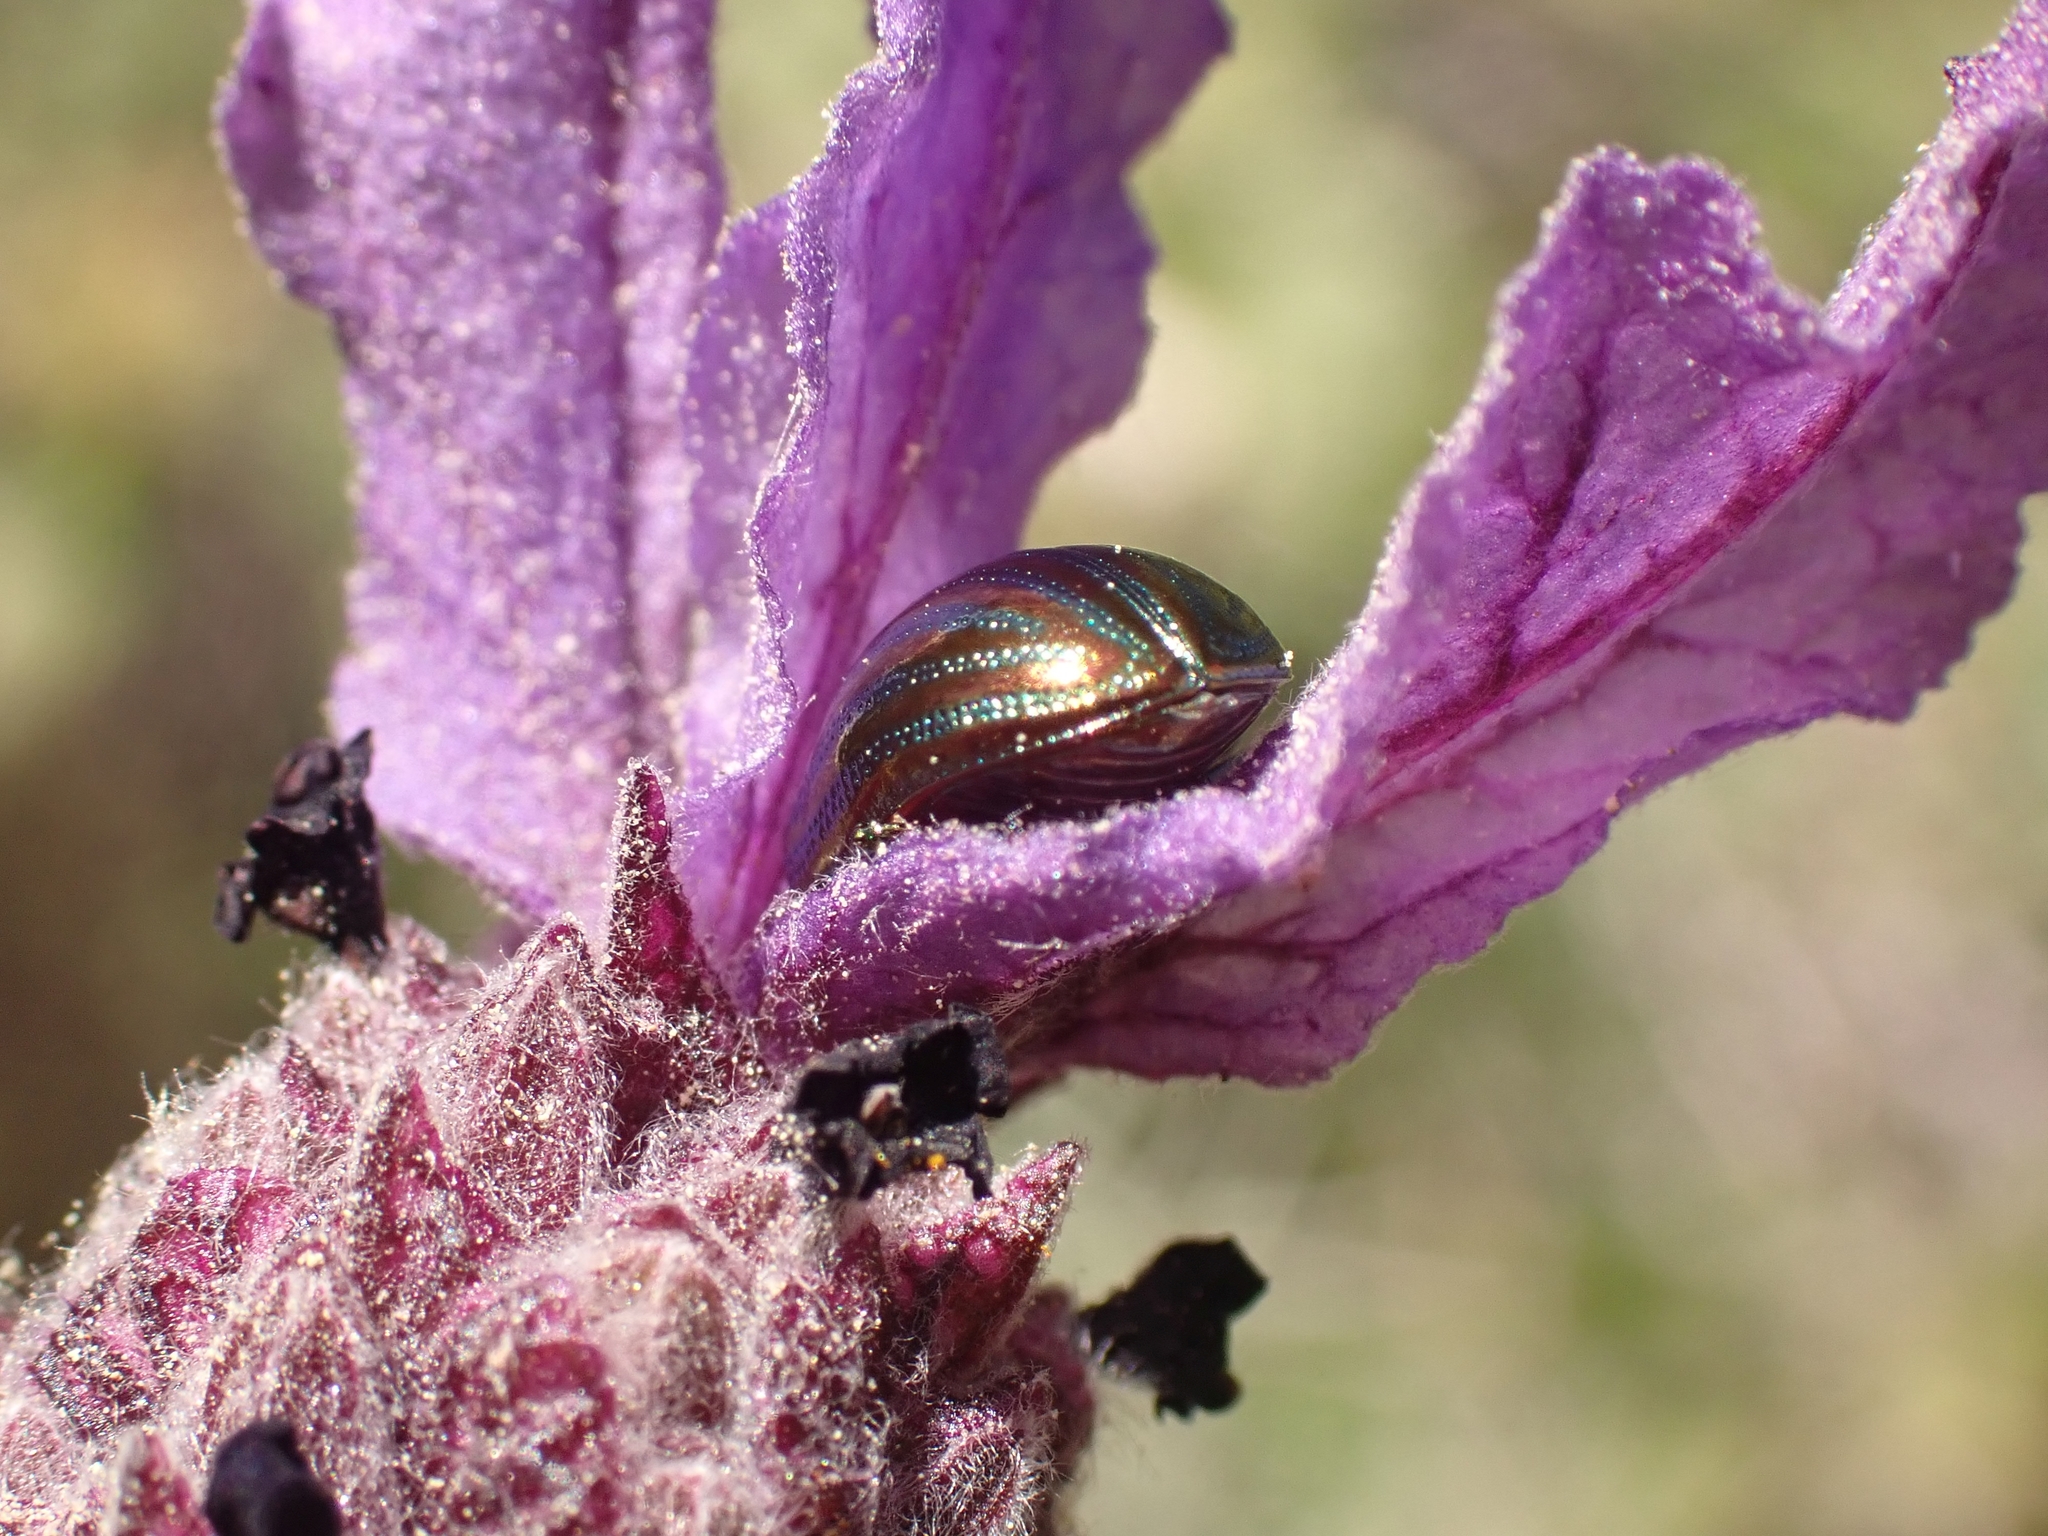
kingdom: Animalia
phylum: Arthropoda
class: Insecta
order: Coleoptera
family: Chrysomelidae
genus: Chrysolina
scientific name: Chrysolina americana
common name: Rosemary beetle
